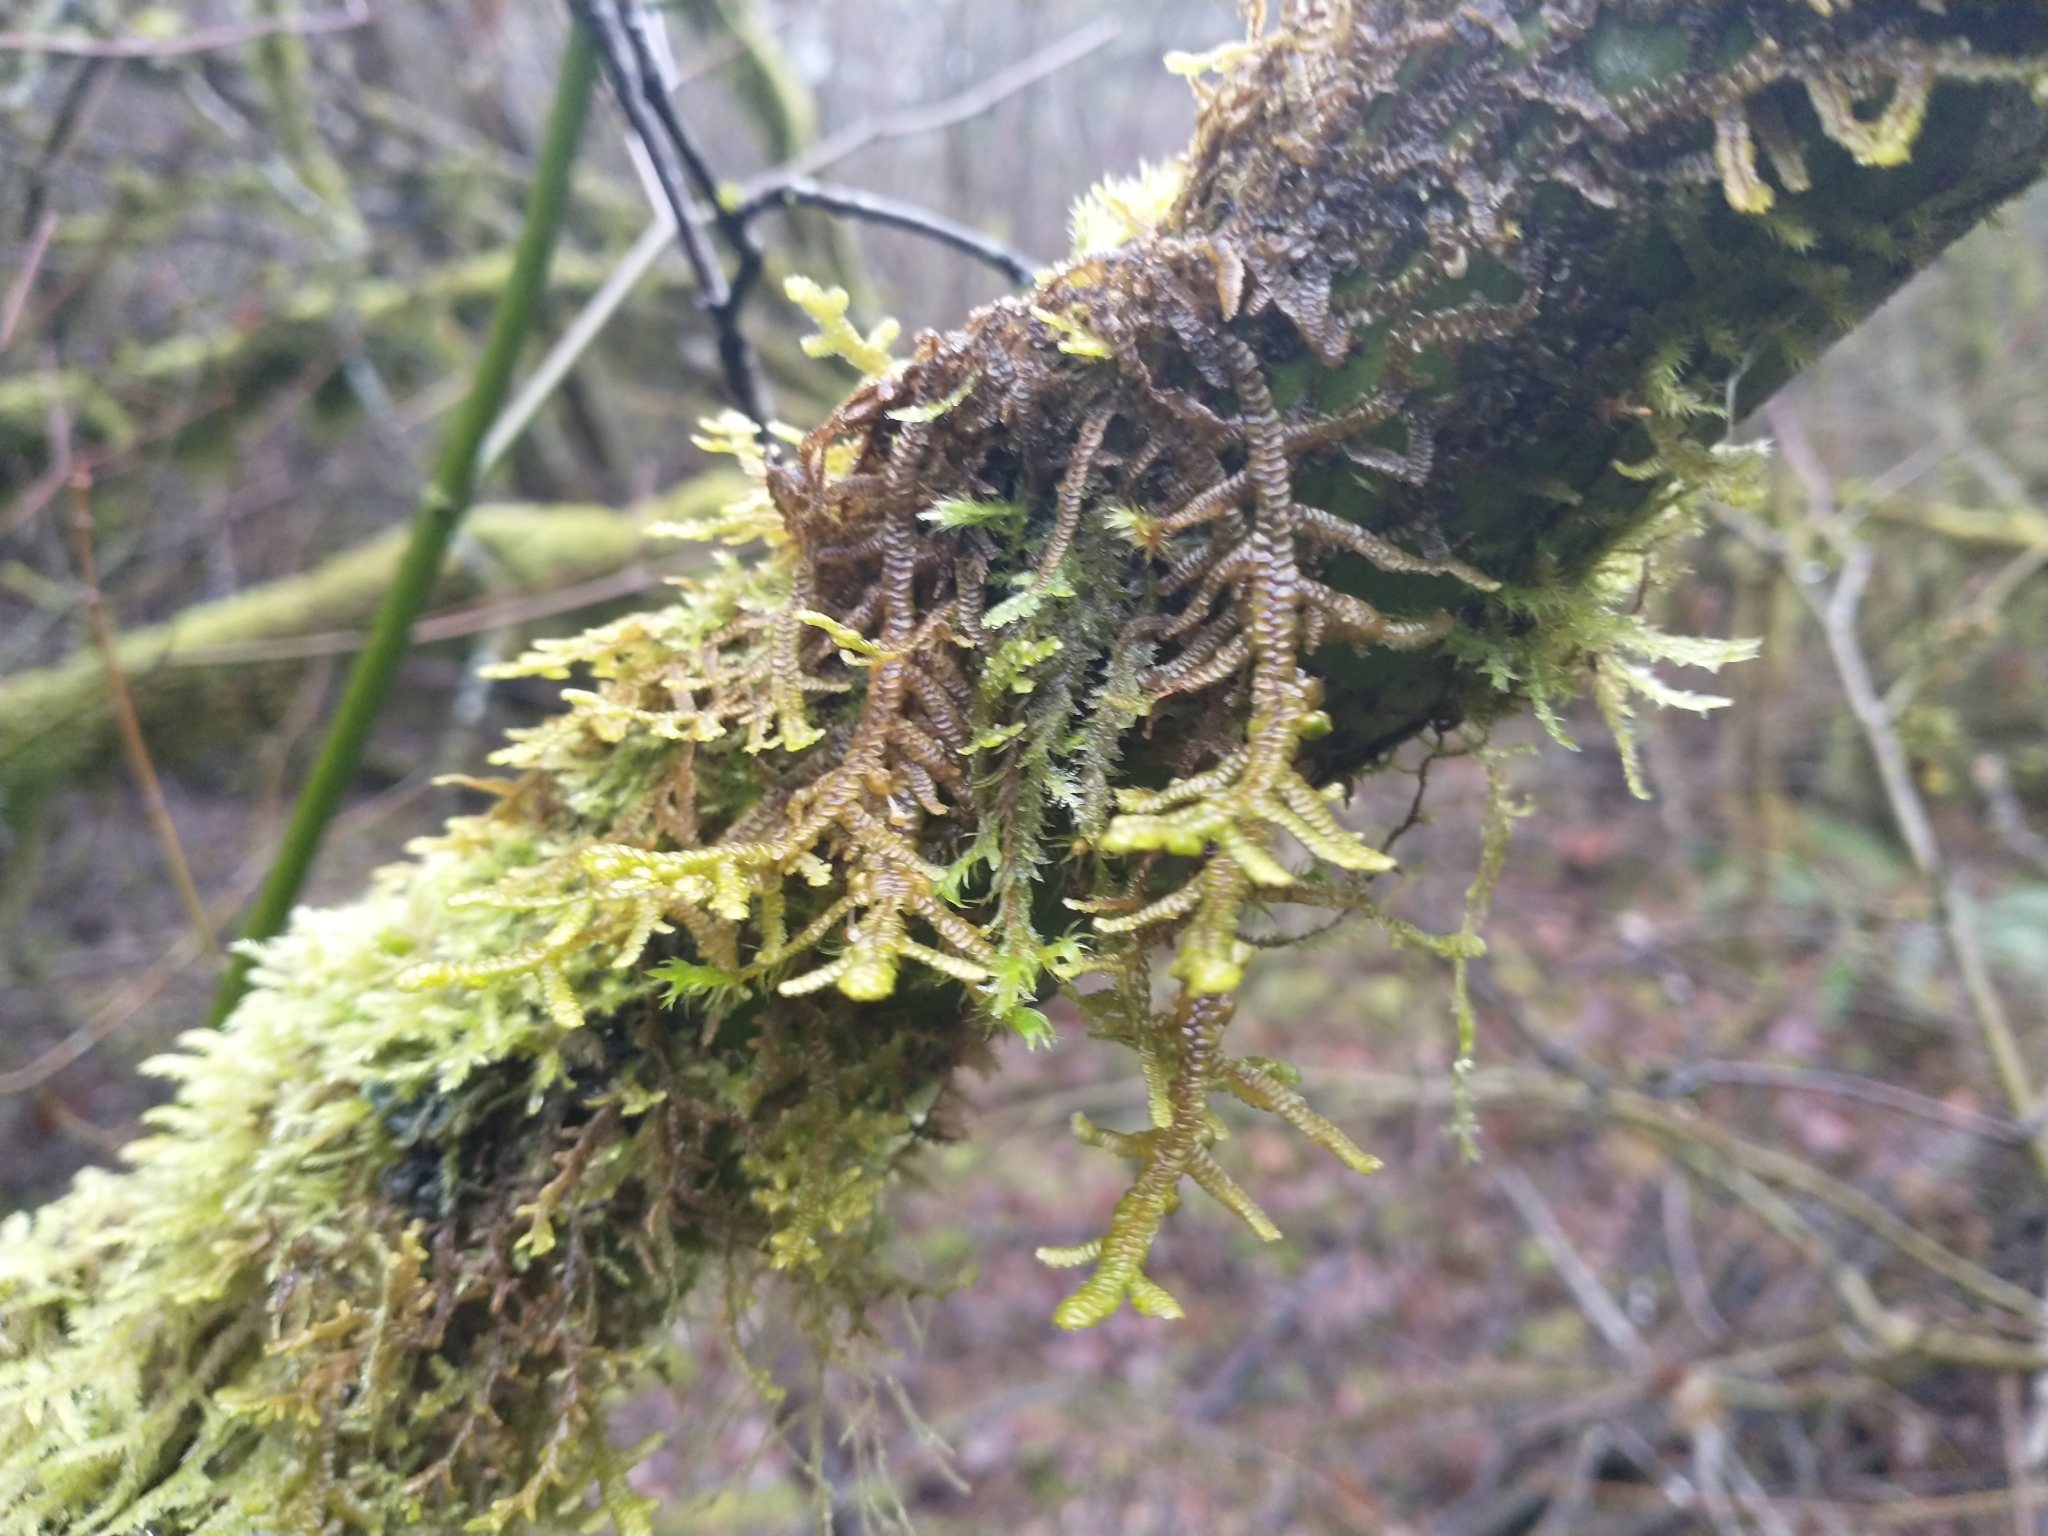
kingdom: Plantae
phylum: Marchantiophyta
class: Jungermanniopsida
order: Porellales
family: Porellaceae
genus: Porella
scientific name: Porella navicularis
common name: Tree ruffle liverwort
